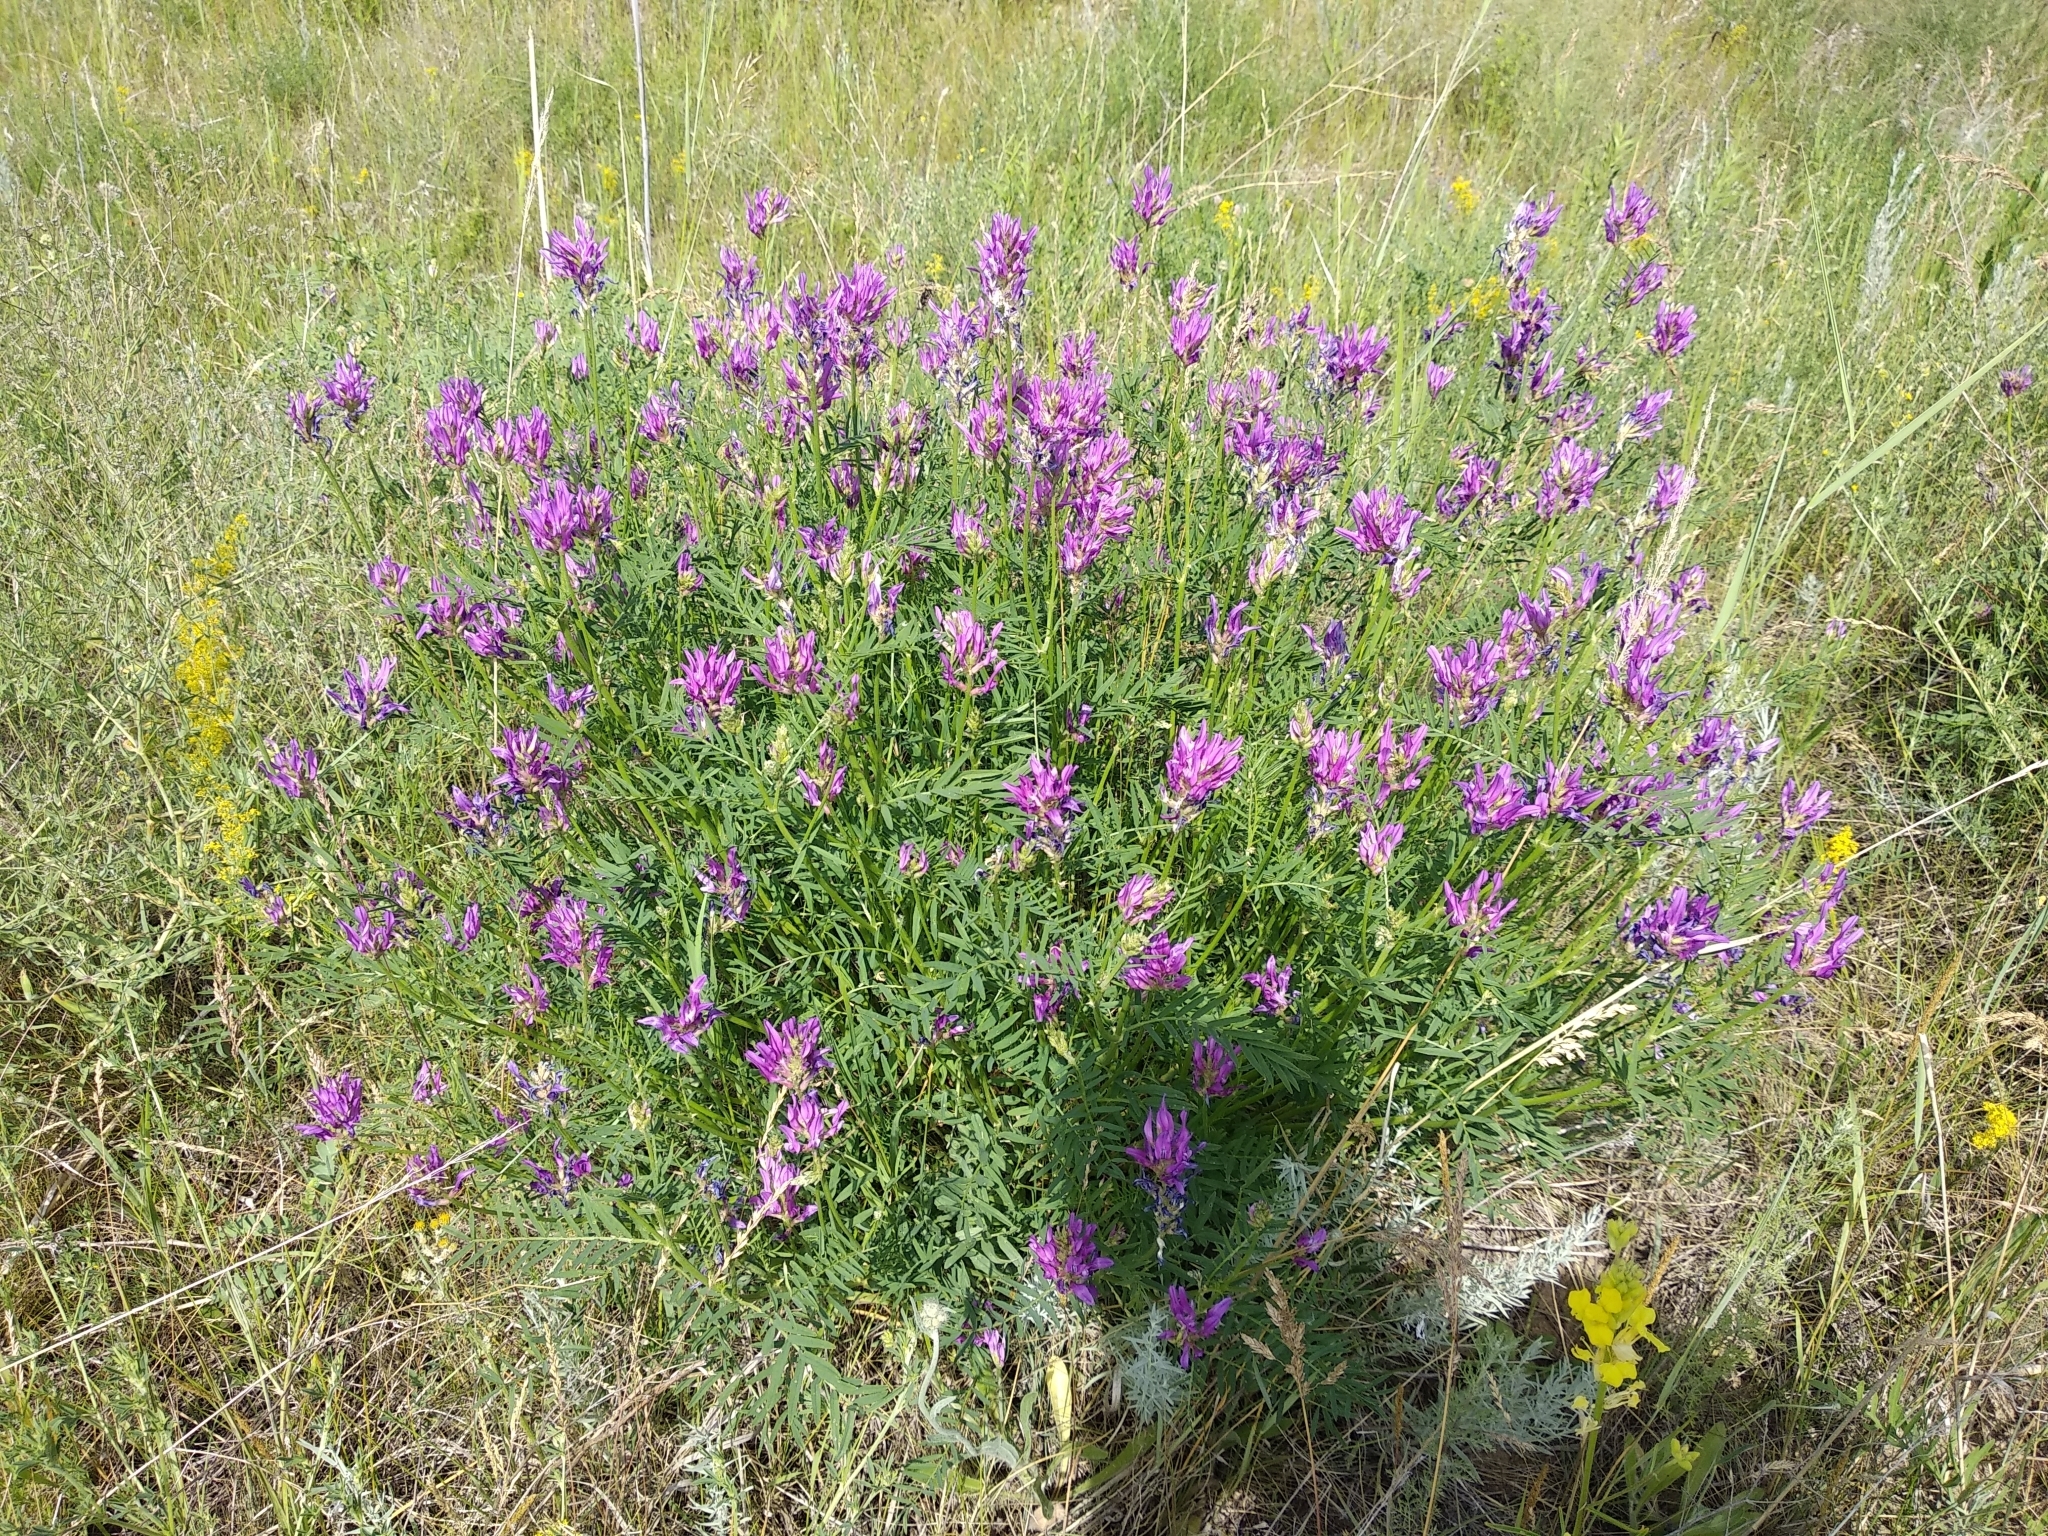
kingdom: Plantae
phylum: Tracheophyta
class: Magnoliopsida
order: Fabales
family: Fabaceae
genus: Astragalus
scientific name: Astragalus onobrychis
